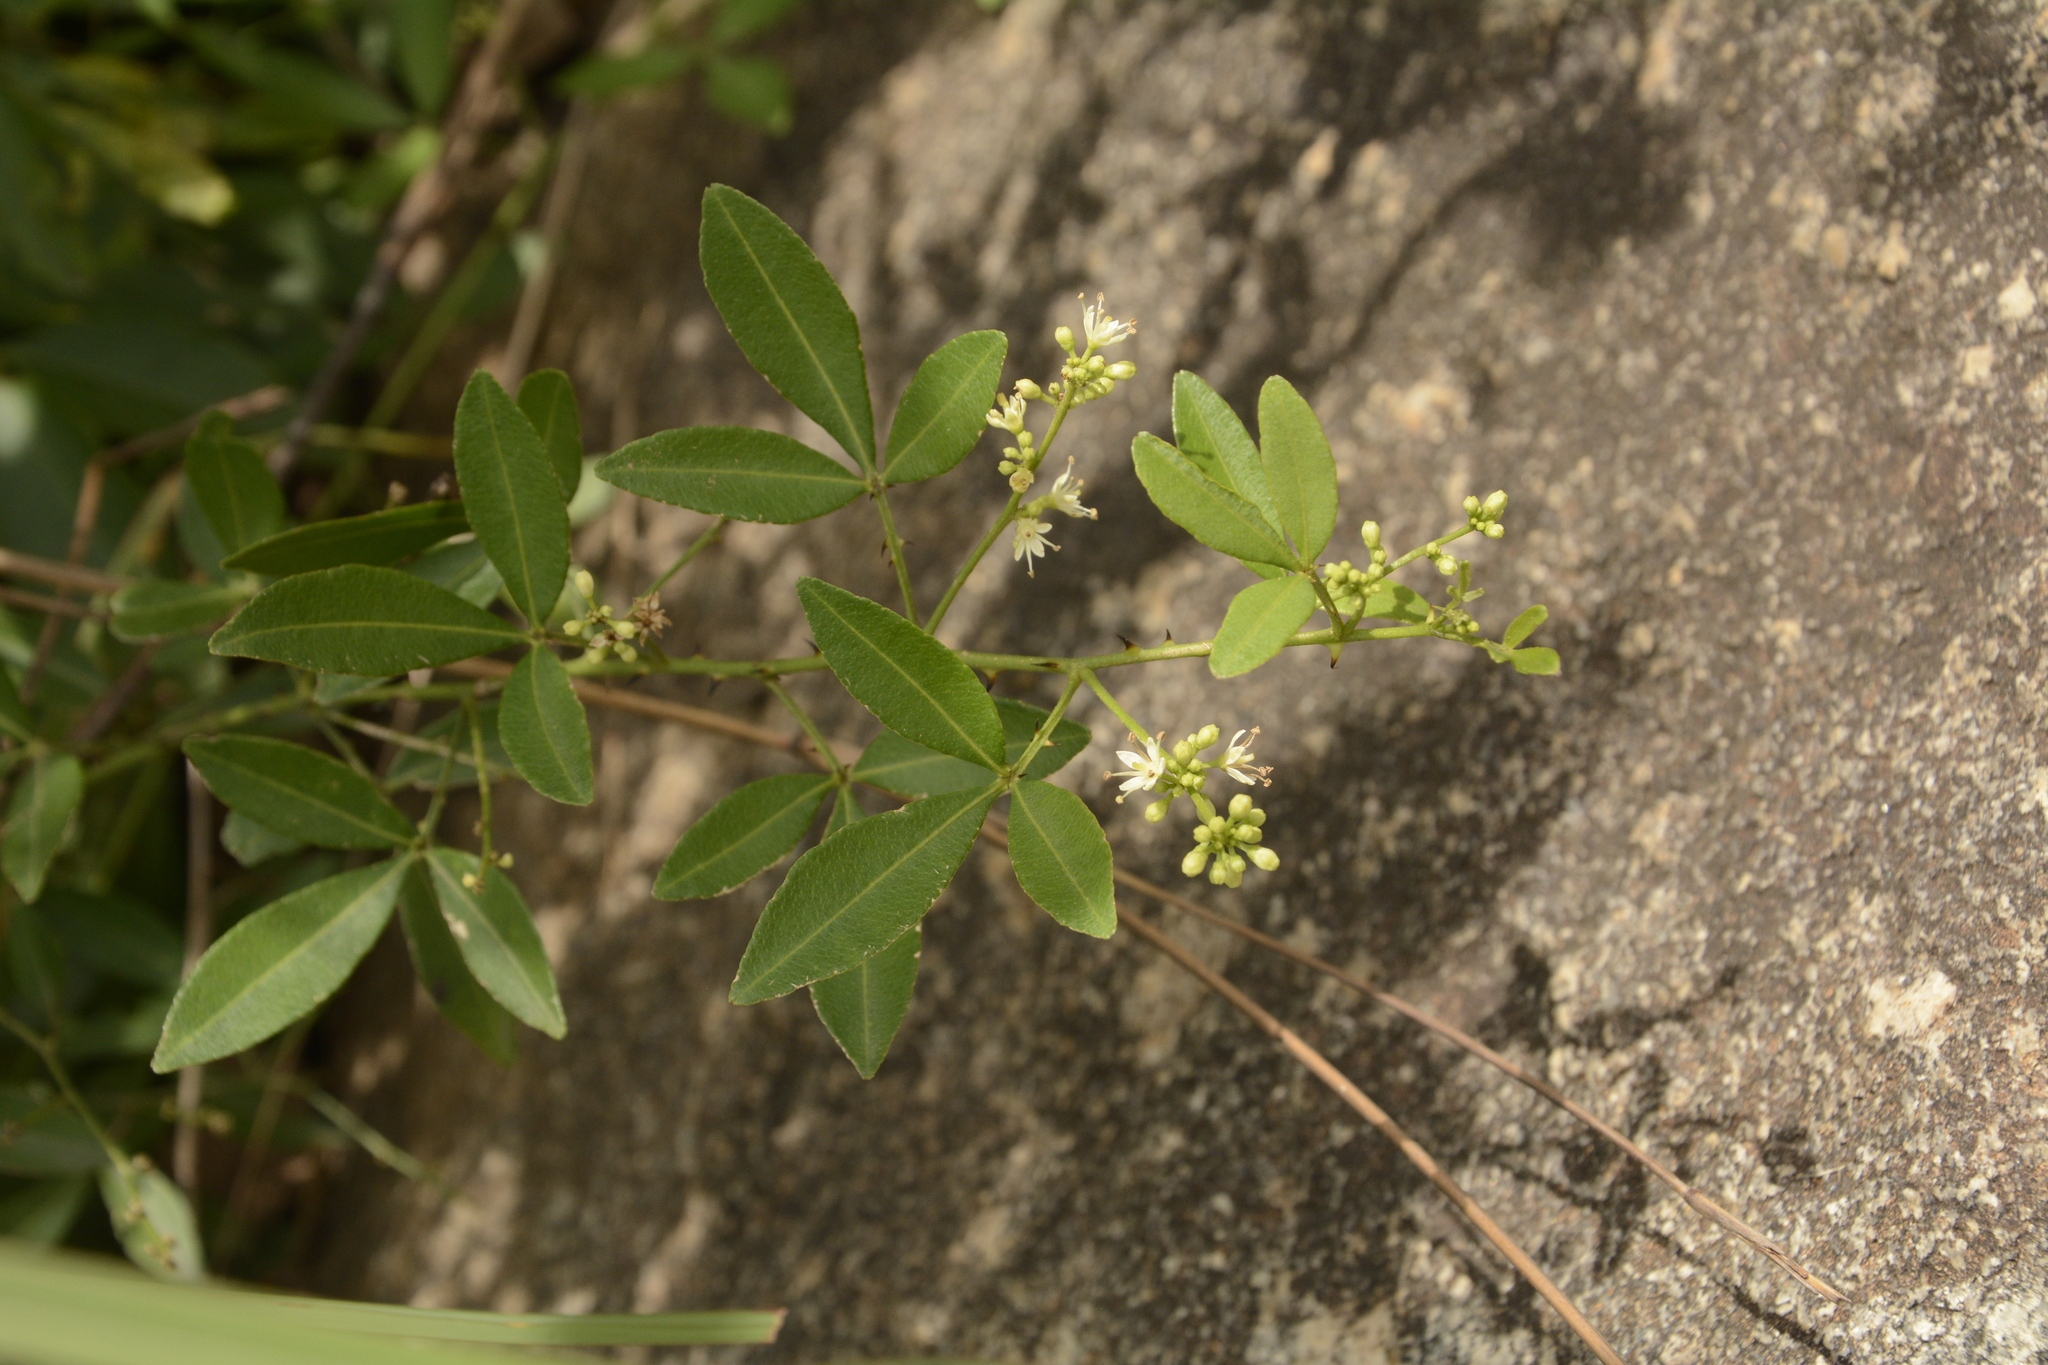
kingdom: Plantae
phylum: Tracheophyta
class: Magnoliopsida
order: Sapindales
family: Rutaceae
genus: Zanthoxylum
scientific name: Zanthoxylum asiaticum
